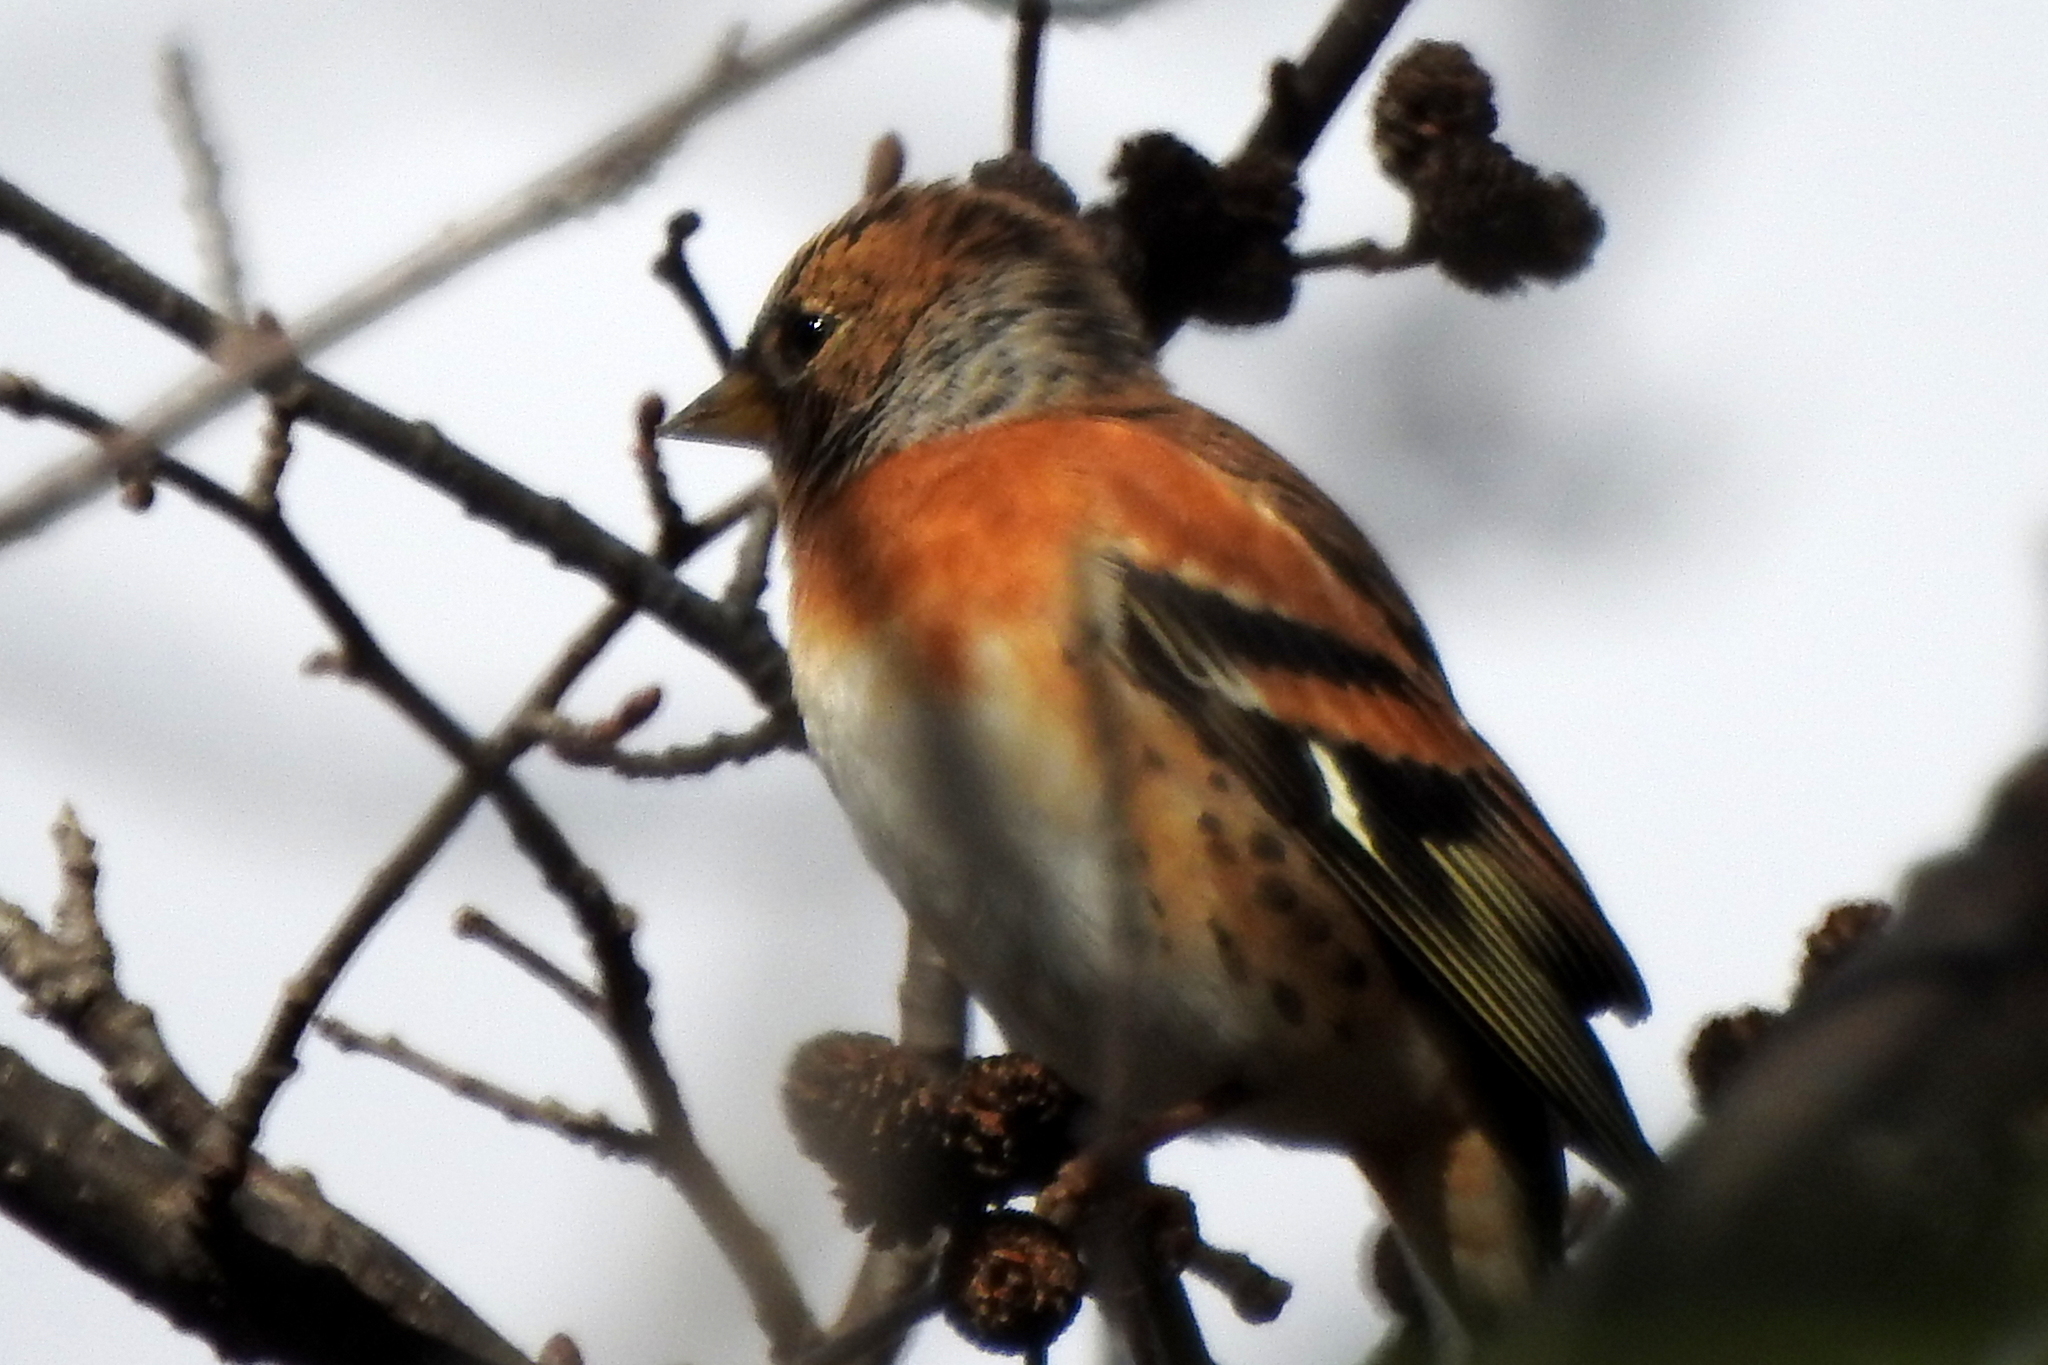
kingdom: Animalia
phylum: Chordata
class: Aves
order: Passeriformes
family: Fringillidae
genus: Fringilla
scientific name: Fringilla montifringilla
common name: Brambling
